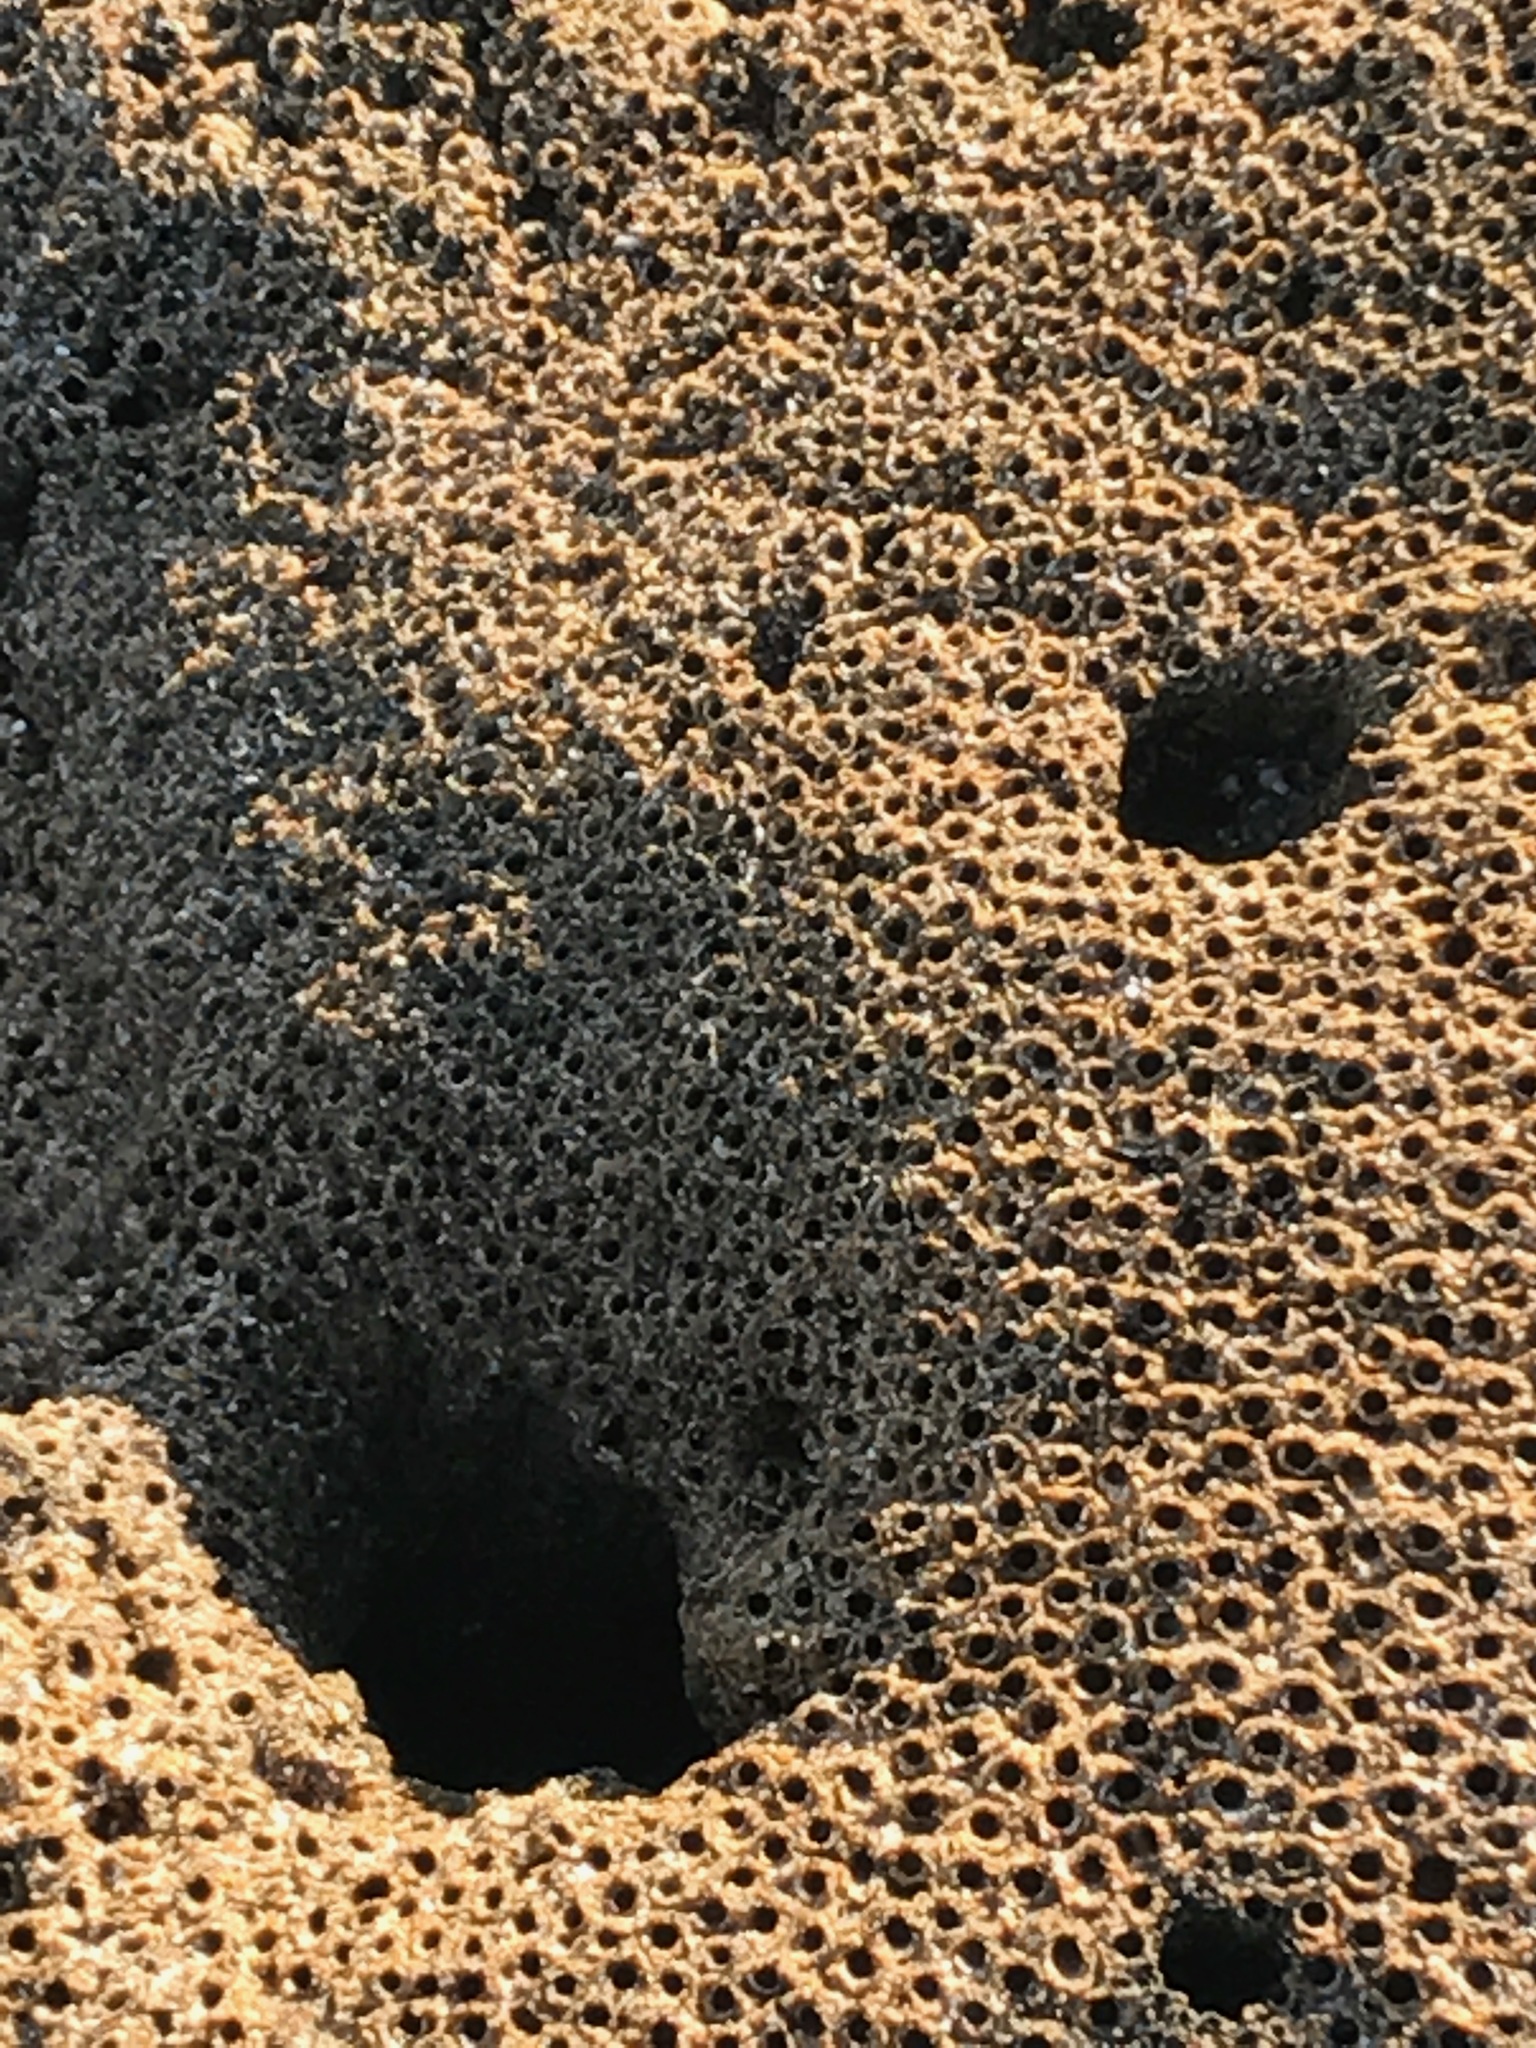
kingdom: Animalia
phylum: Annelida
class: Polychaeta
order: Sabellida
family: Sabellariidae
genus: Phragmatopoma
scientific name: Phragmatopoma californica
